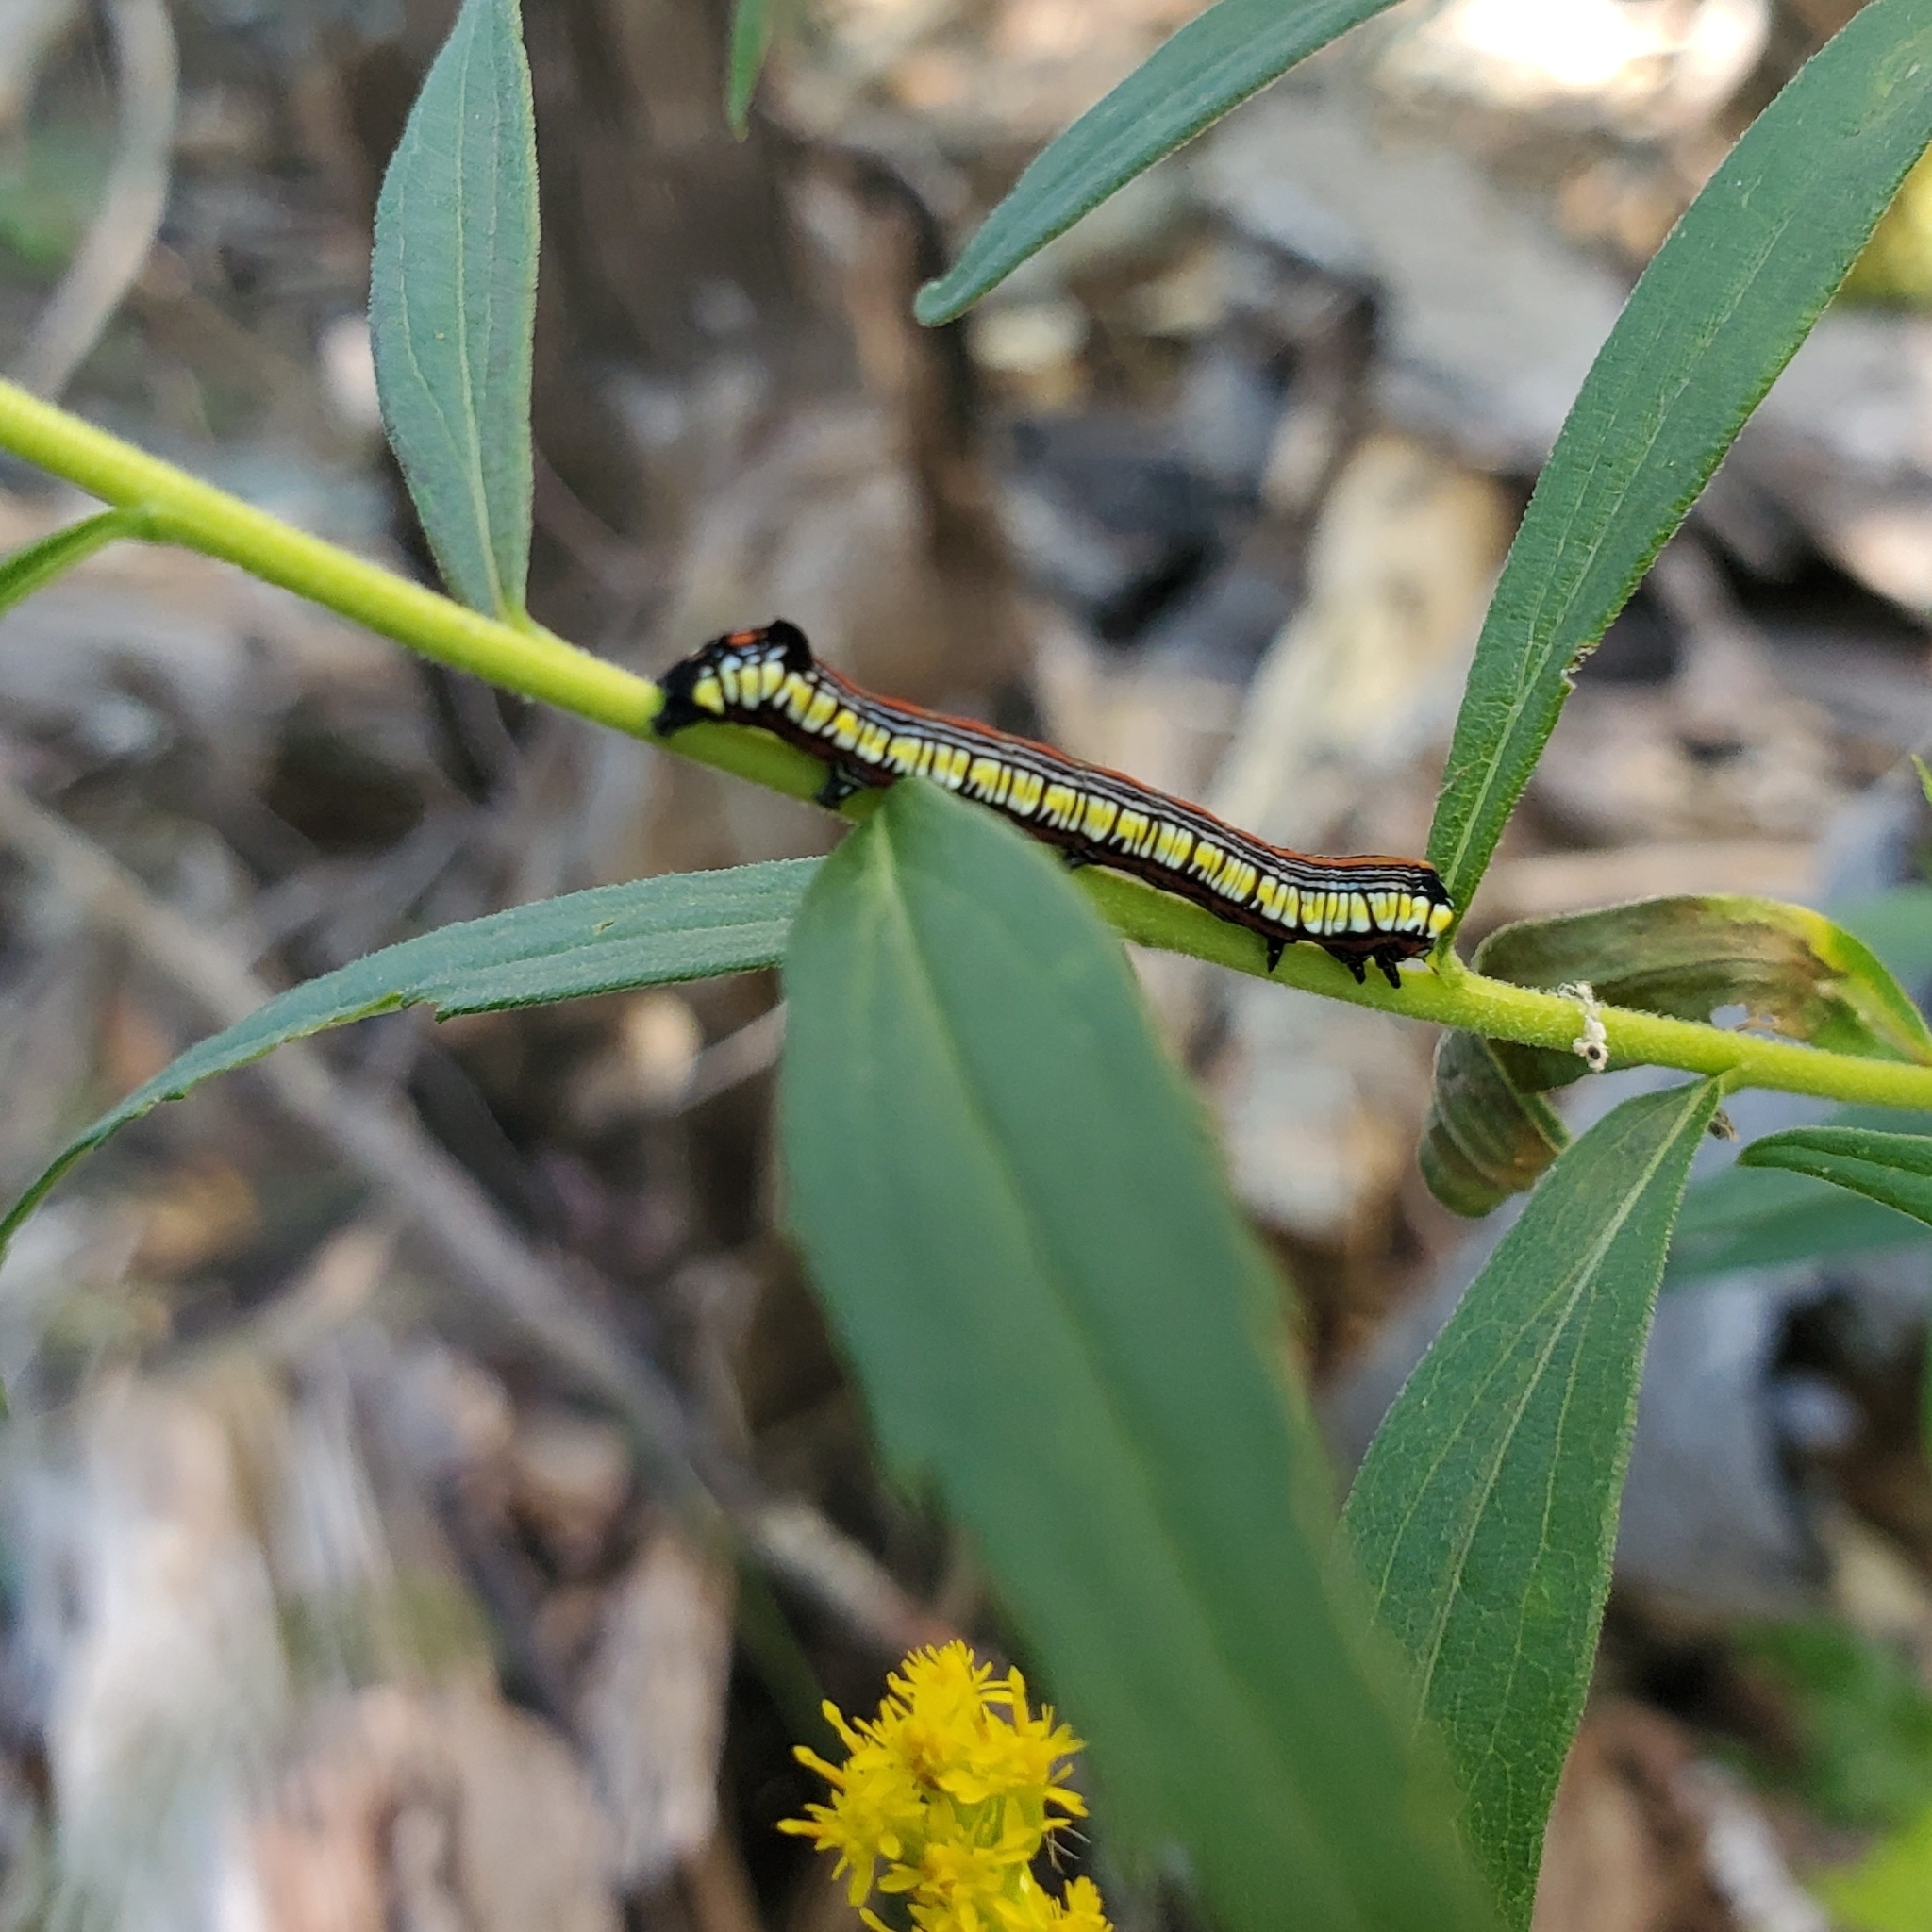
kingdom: Animalia
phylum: Arthropoda
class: Insecta
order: Lepidoptera
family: Noctuidae
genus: Cucullia
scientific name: Cucullia convexipennis
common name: Brown-hooded owlet
